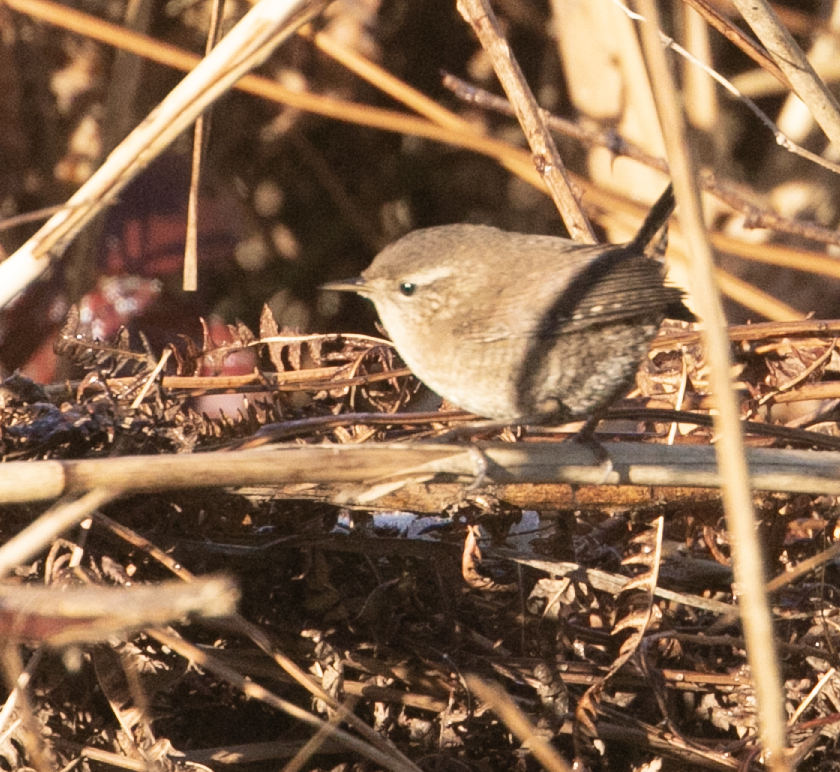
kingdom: Animalia
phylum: Chordata
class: Aves
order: Passeriformes
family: Troglodytidae
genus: Troglodytes
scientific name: Troglodytes troglodytes
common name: Eurasian wren
